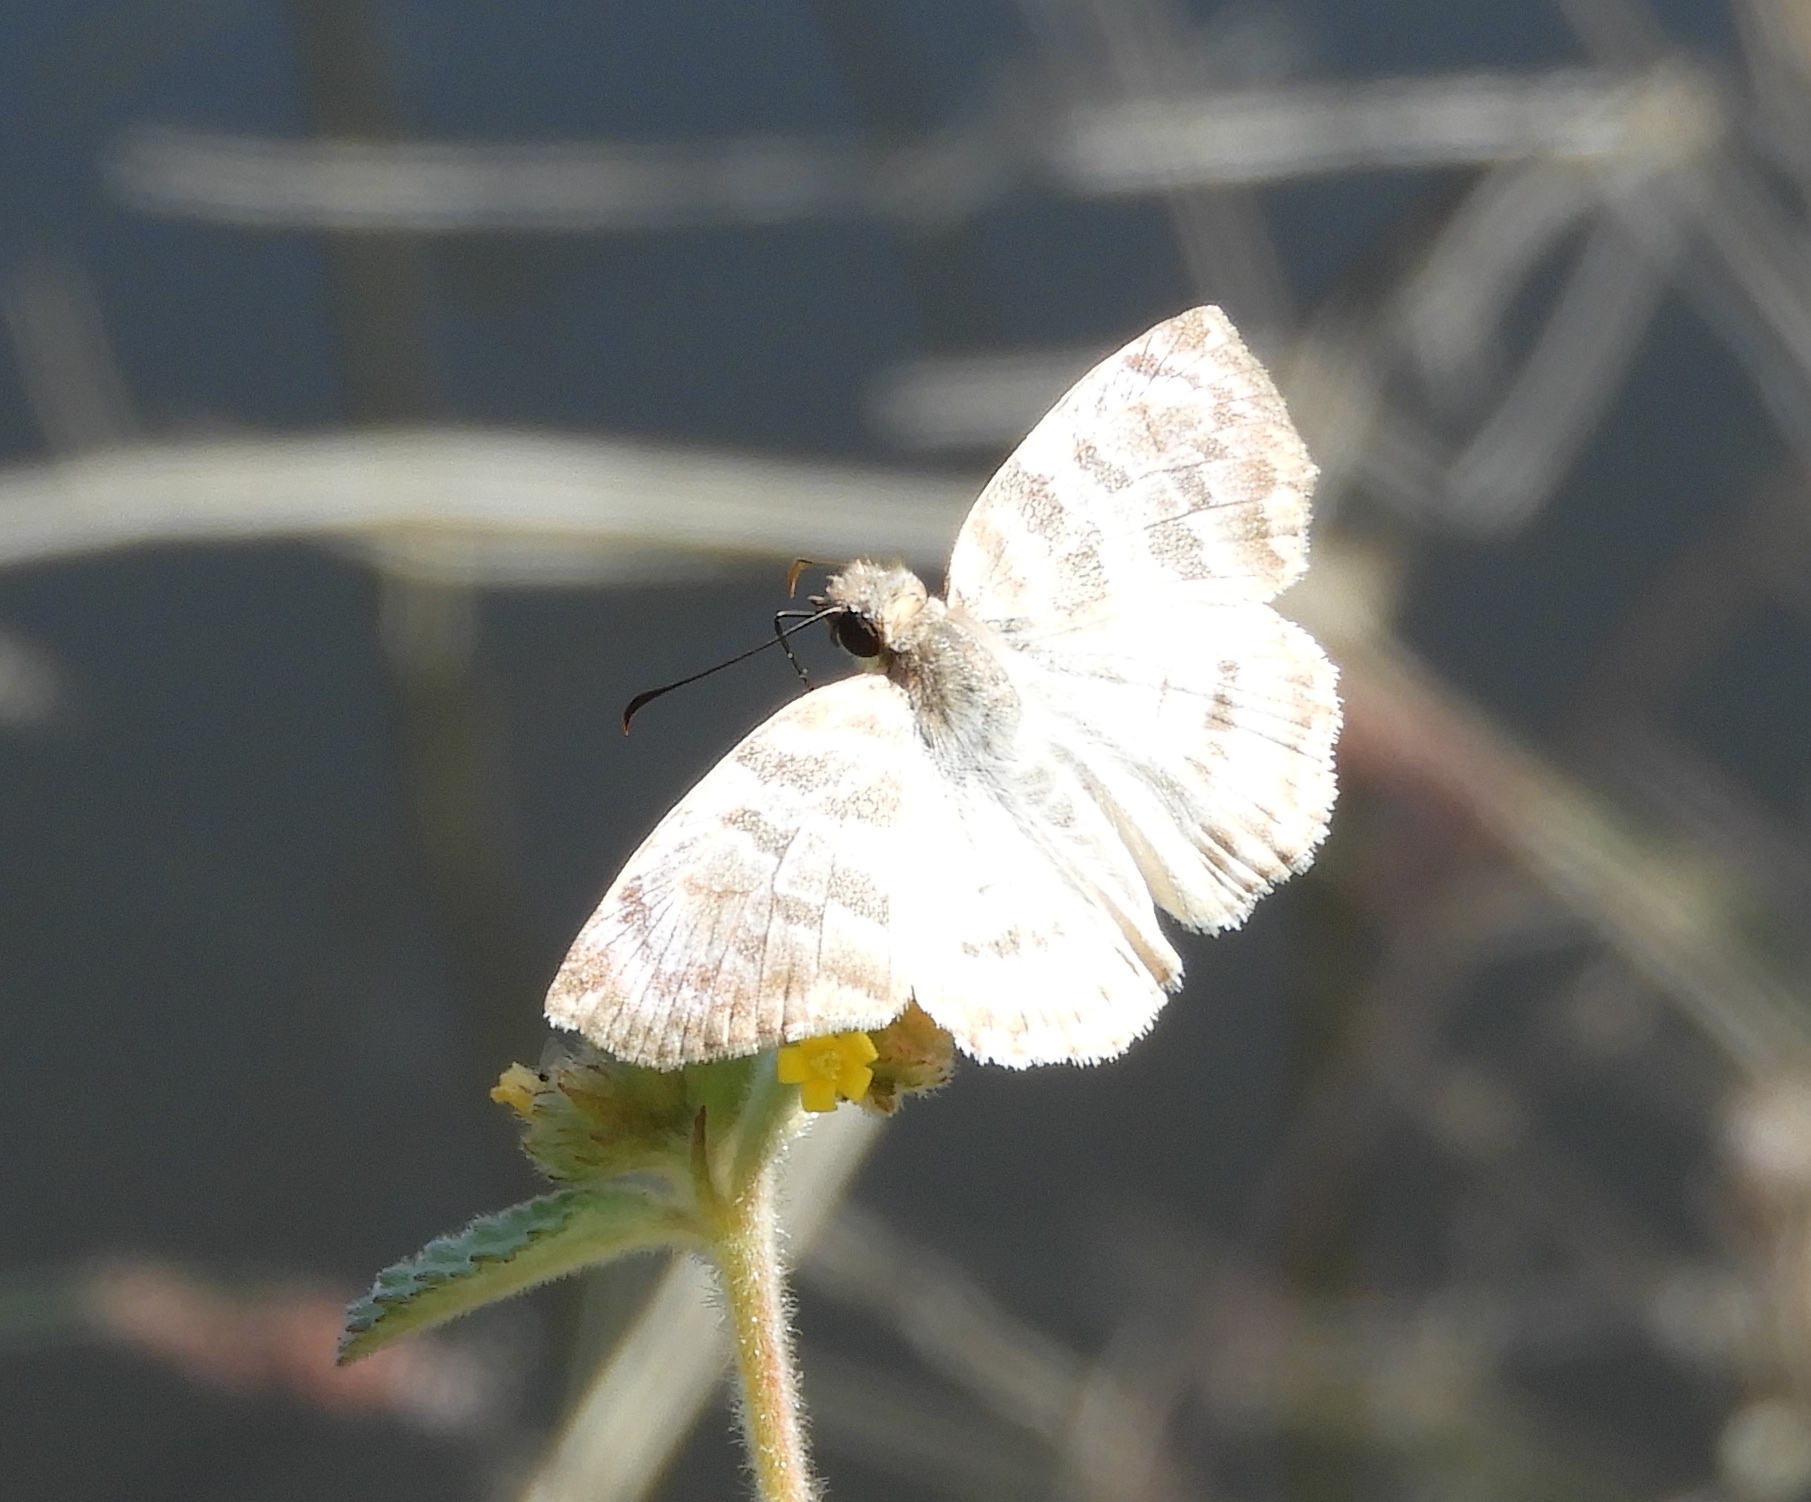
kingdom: Animalia
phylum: Arthropoda
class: Insecta
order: Lepidoptera
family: Hesperiidae
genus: Mylon
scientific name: Mylon pelopidas
